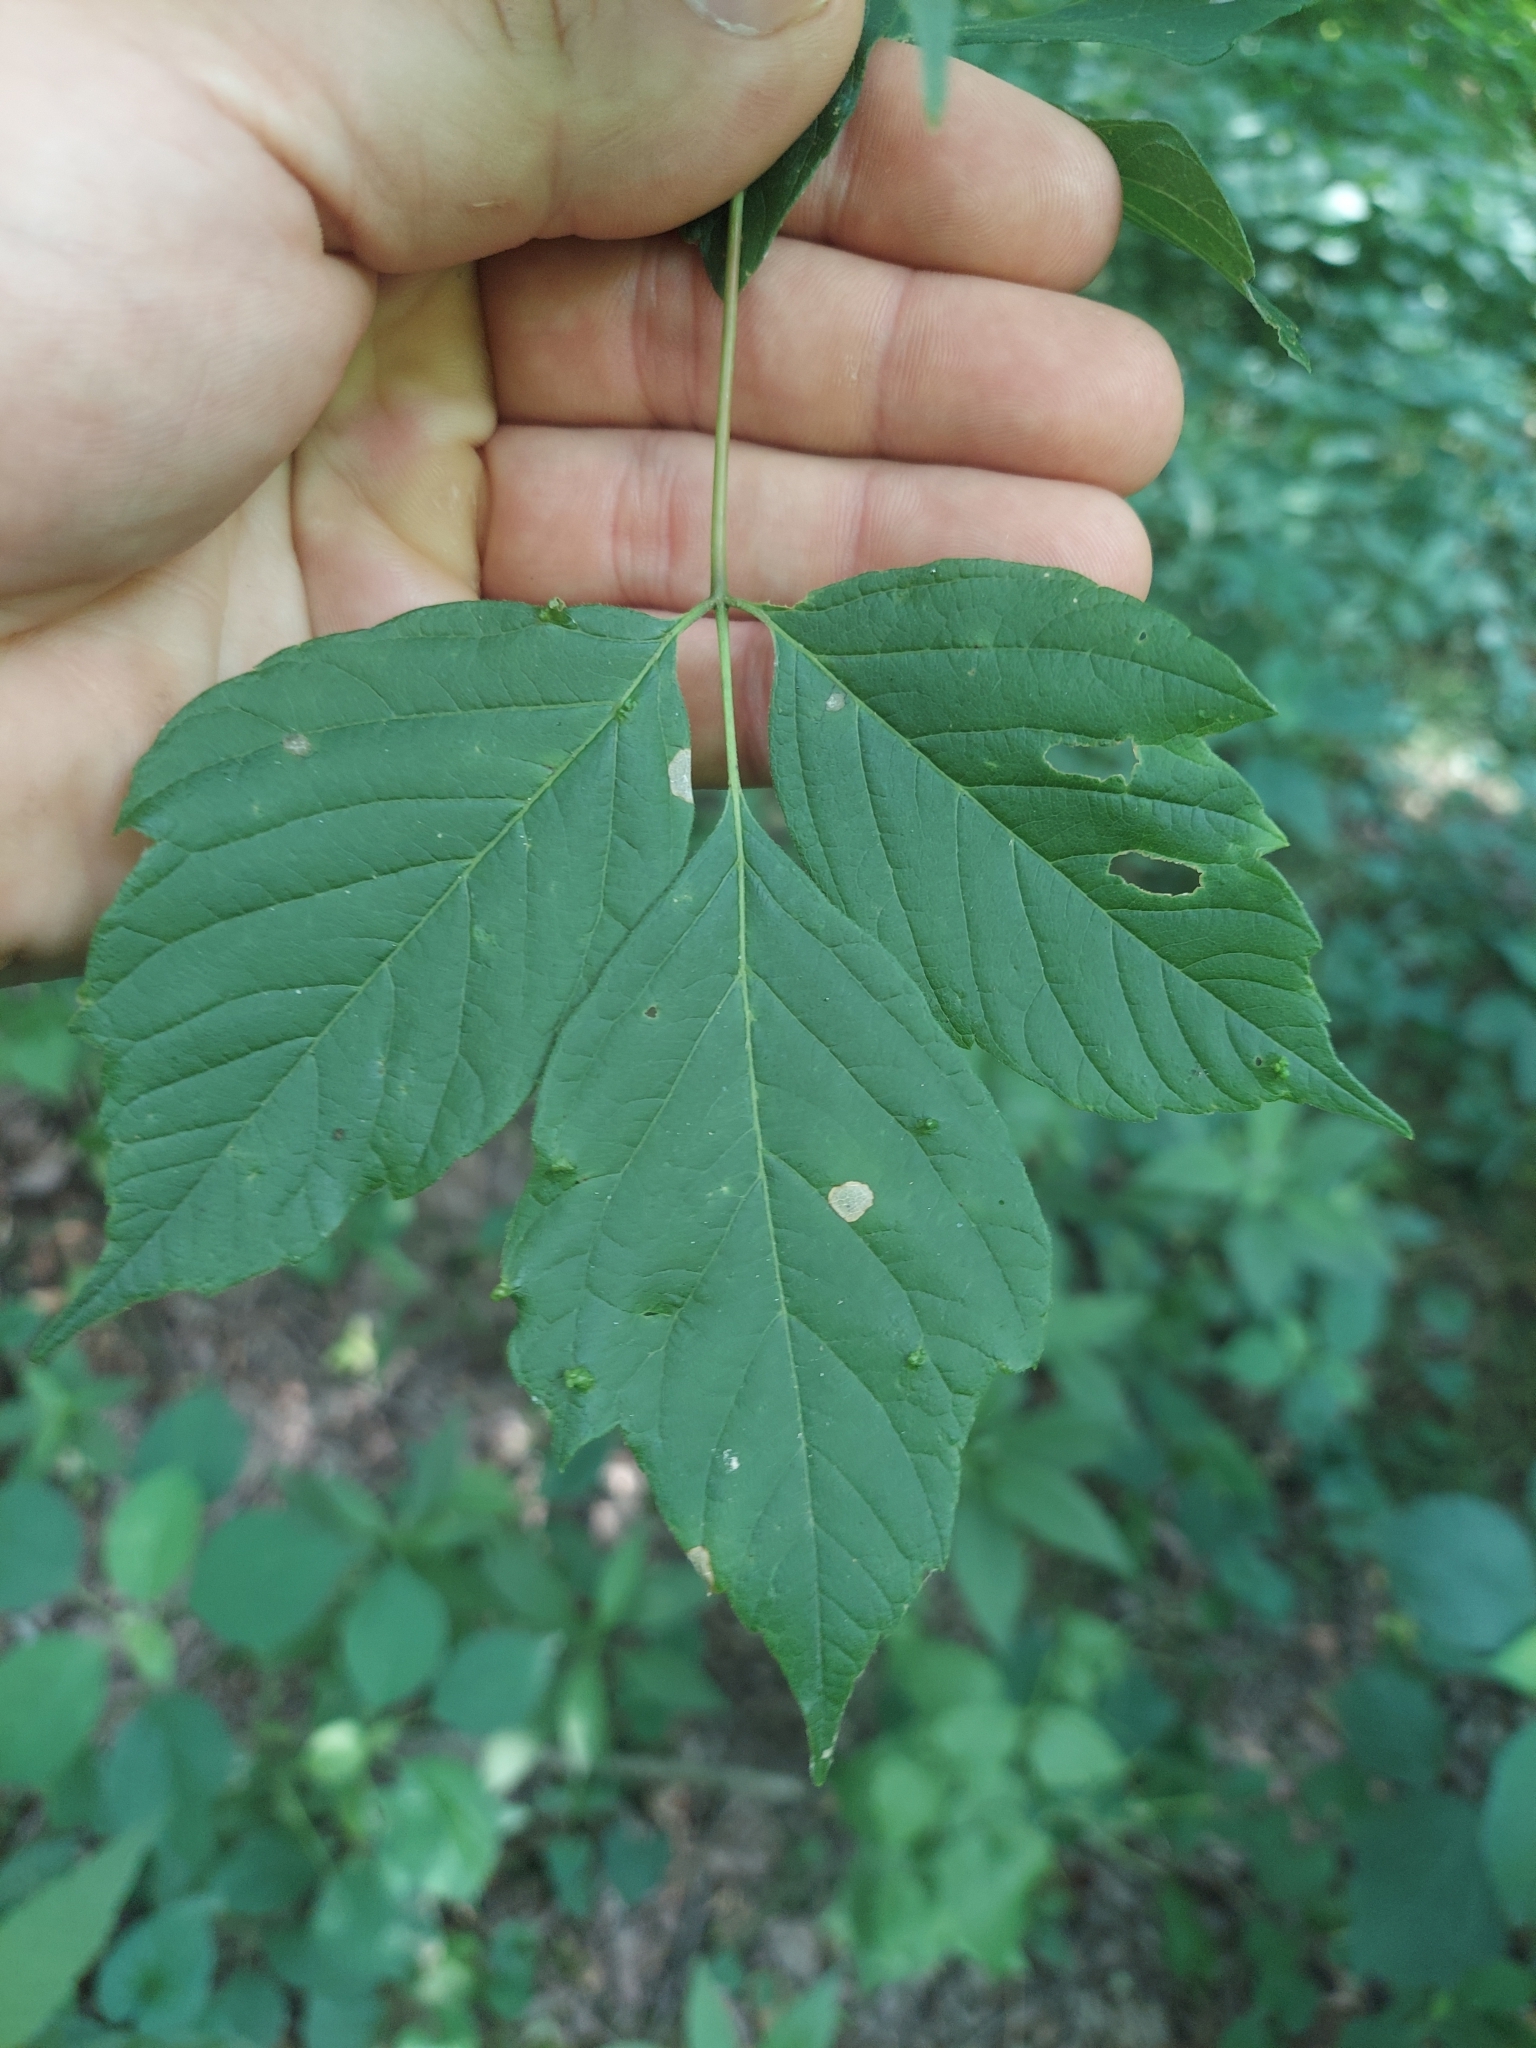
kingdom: Plantae
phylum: Tracheophyta
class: Magnoliopsida
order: Sapindales
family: Sapindaceae
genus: Acer
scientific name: Acer negundo
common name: Ashleaf maple
